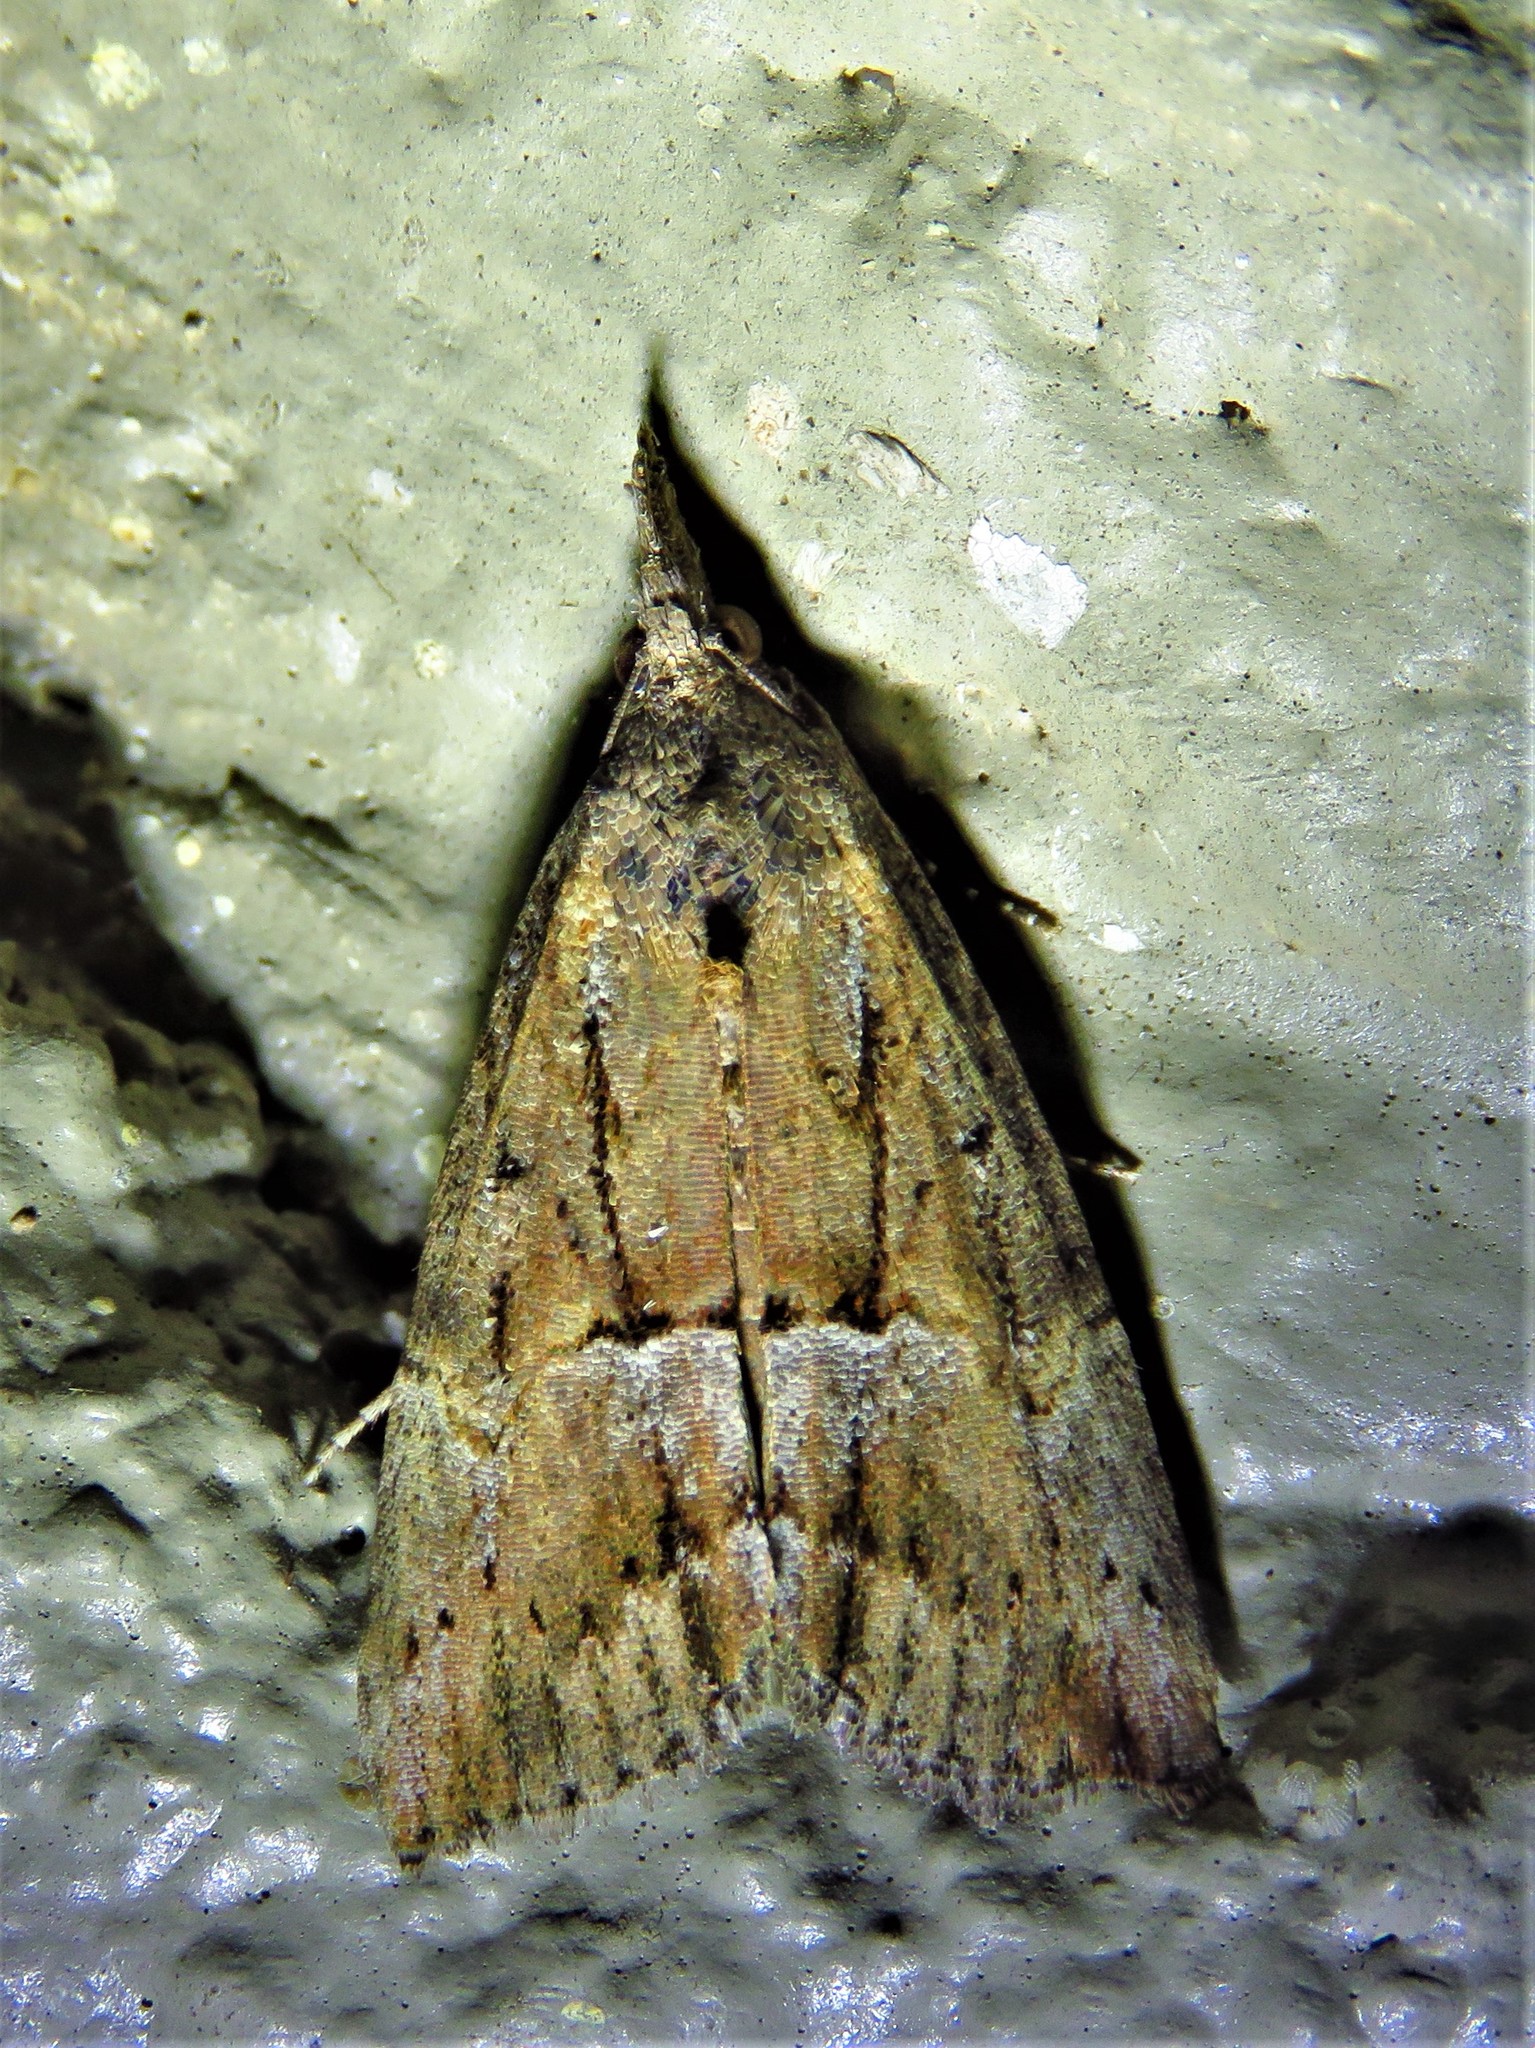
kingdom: Animalia
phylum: Arthropoda
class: Insecta
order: Lepidoptera
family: Erebidae
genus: Hypena
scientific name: Hypena scabra
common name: Green cloverworm
